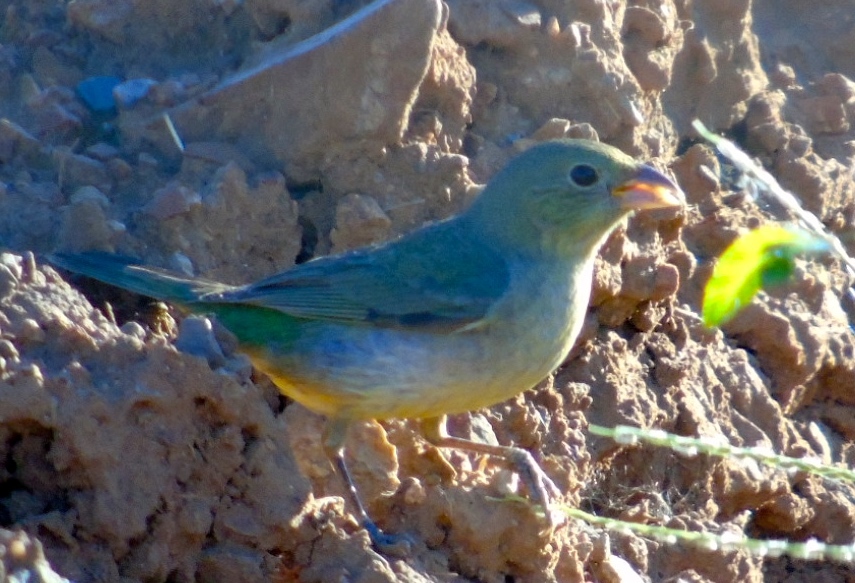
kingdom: Animalia
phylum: Chordata
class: Aves
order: Passeriformes
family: Cardinalidae
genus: Passerina
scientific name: Passerina ciris
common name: Painted bunting
